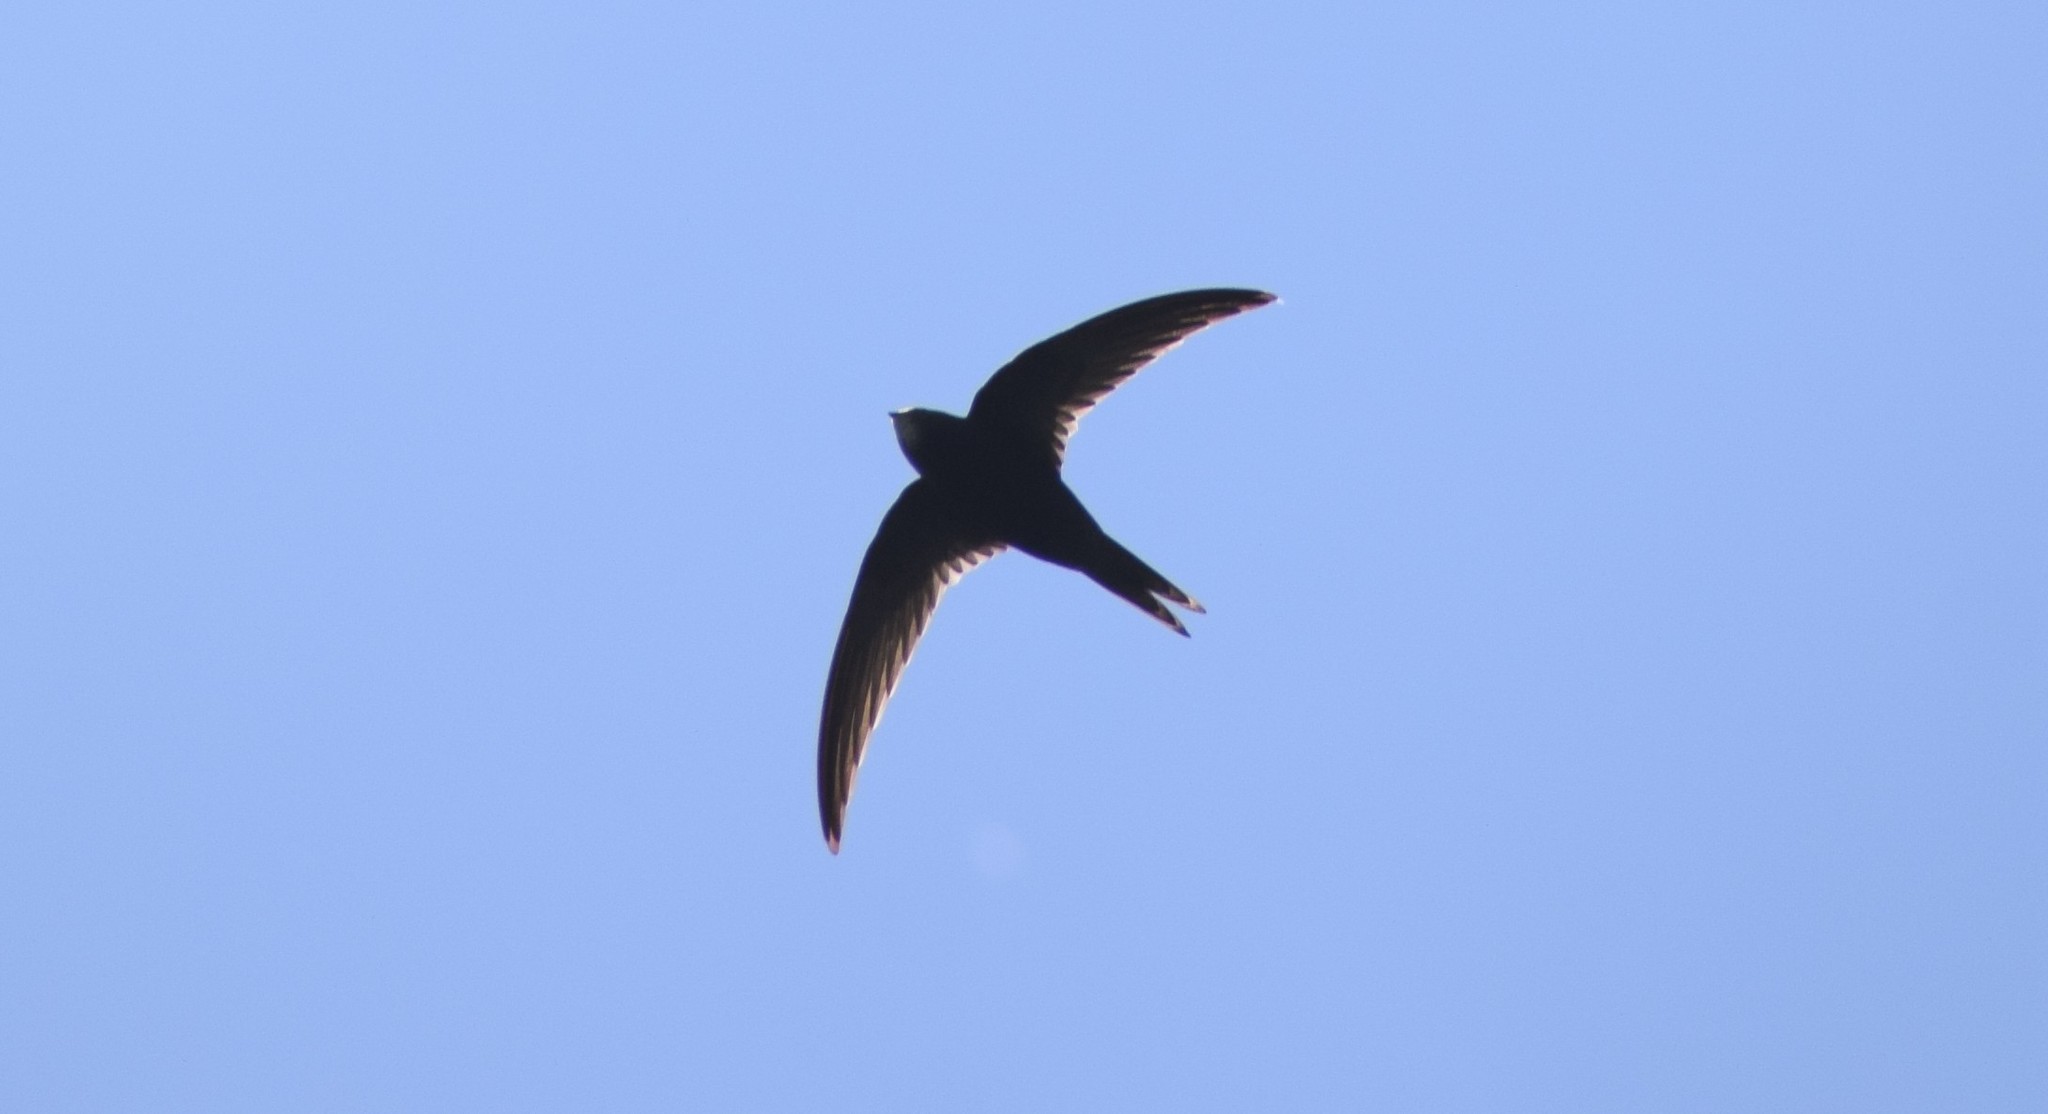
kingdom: Animalia
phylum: Chordata
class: Aves
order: Apodiformes
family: Apodidae
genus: Apus
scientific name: Apus apus
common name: Common swift
